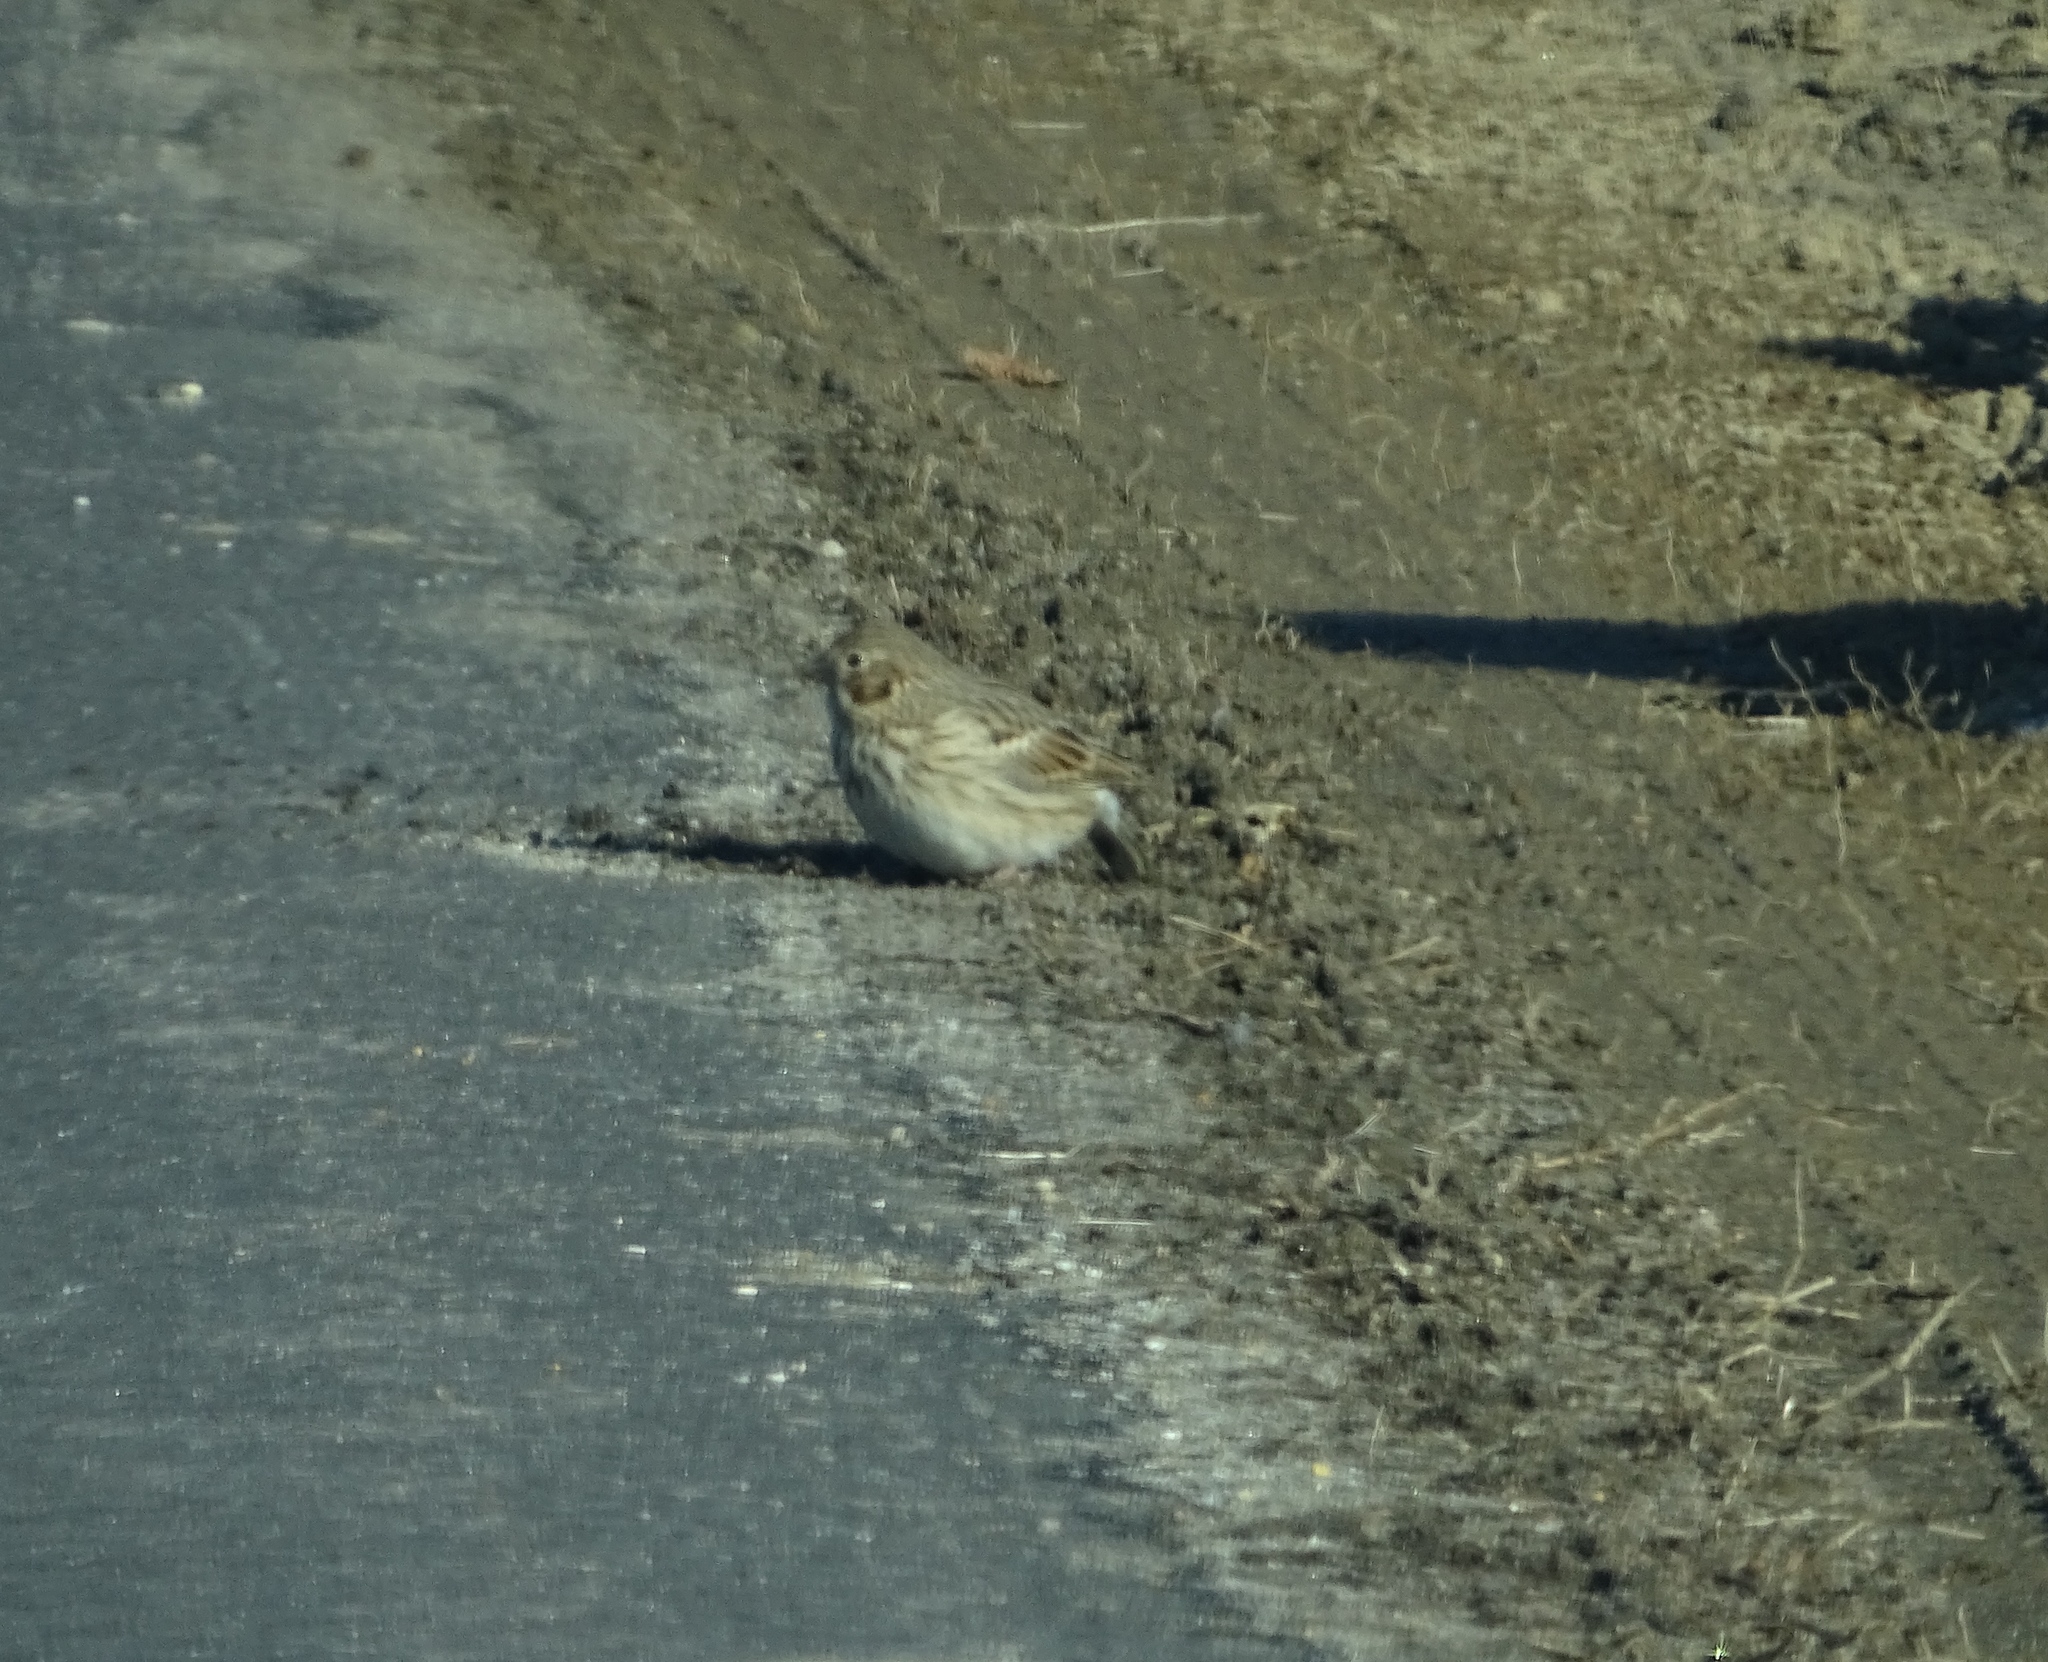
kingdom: Animalia
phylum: Chordata
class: Aves
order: Passeriformes
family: Passerellidae
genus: Pooecetes
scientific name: Pooecetes gramineus
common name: Vesper sparrow
